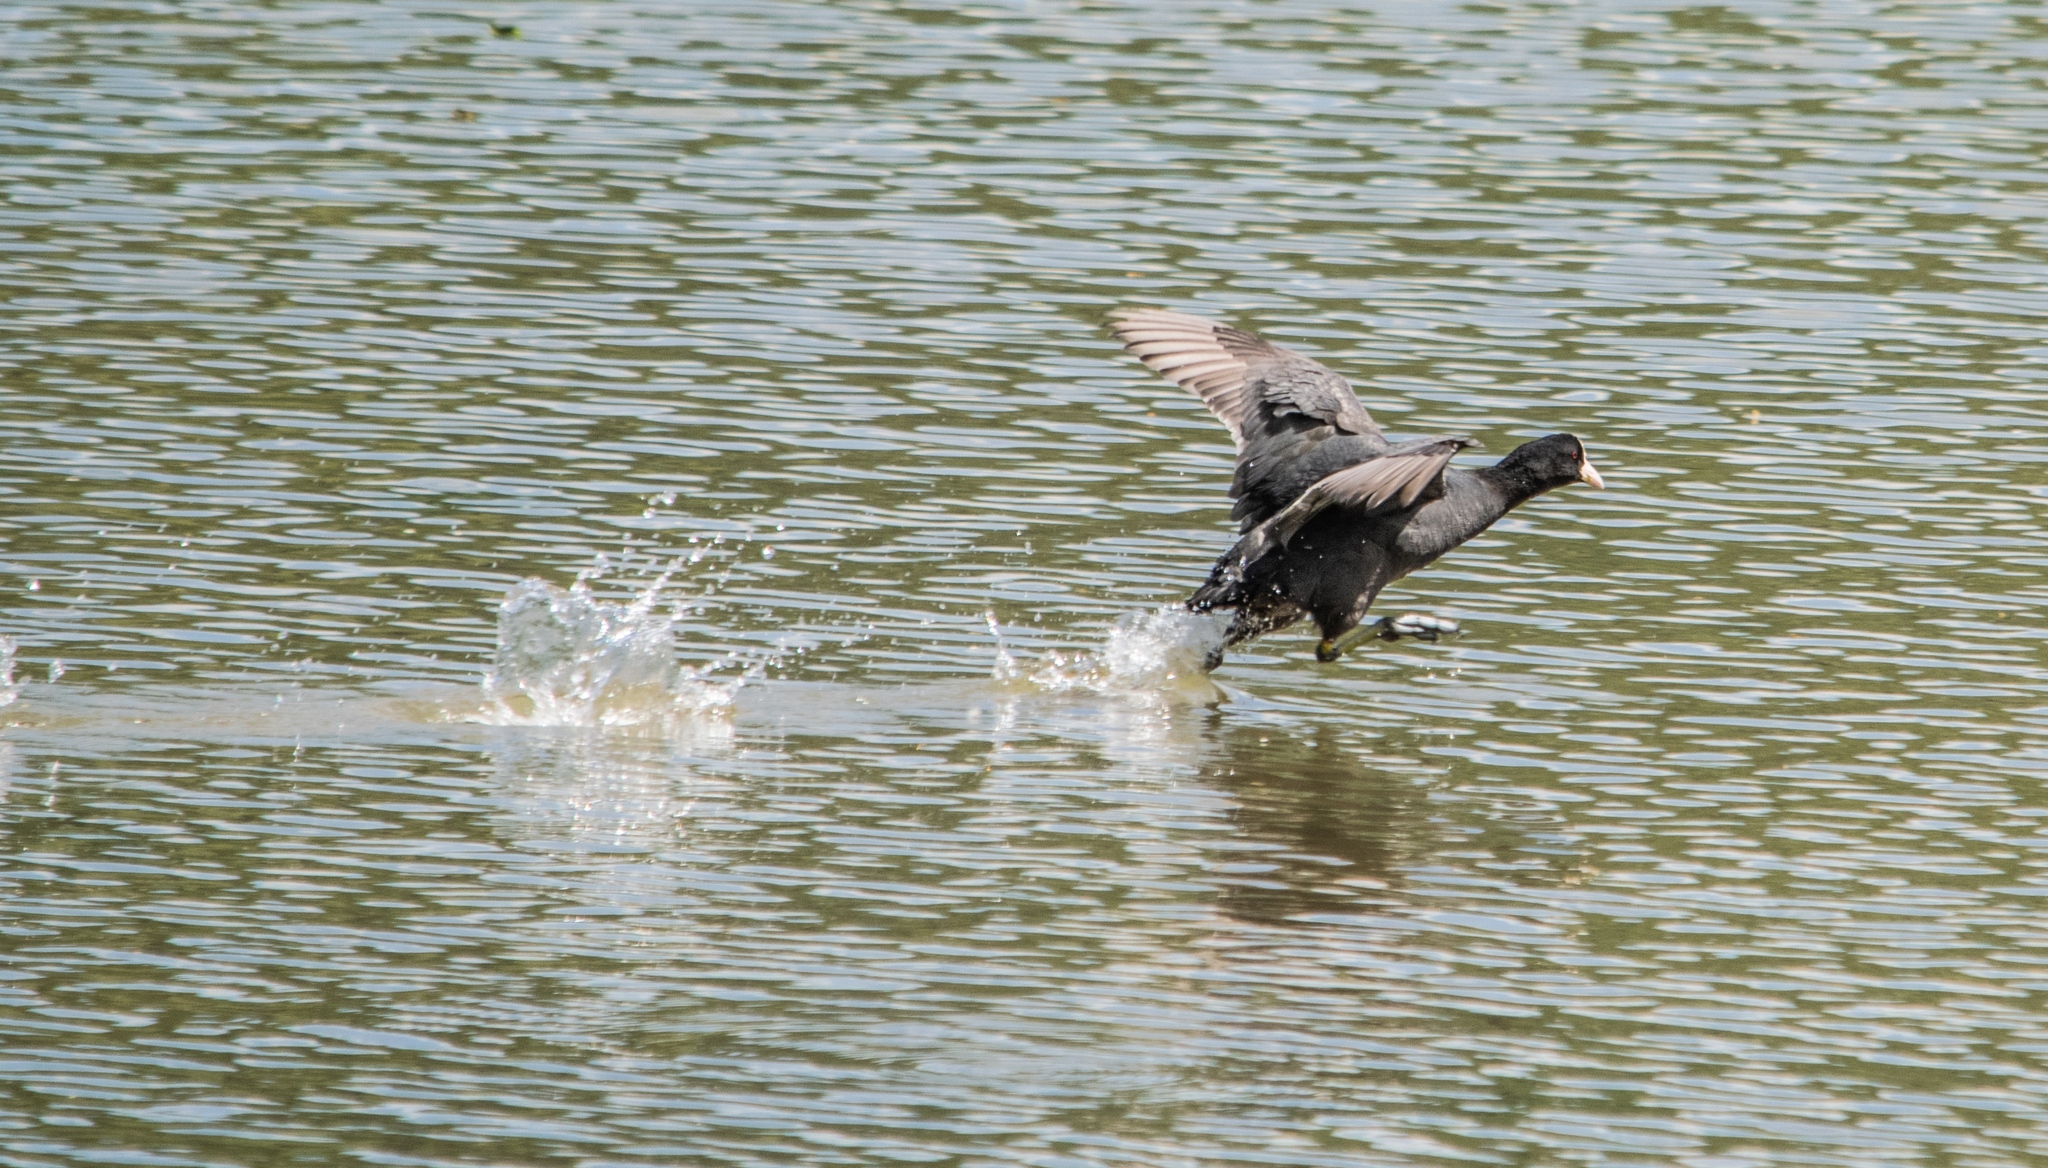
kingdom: Animalia
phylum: Chordata
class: Aves
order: Gruiformes
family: Rallidae
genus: Fulica
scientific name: Fulica atra
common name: Eurasian coot
